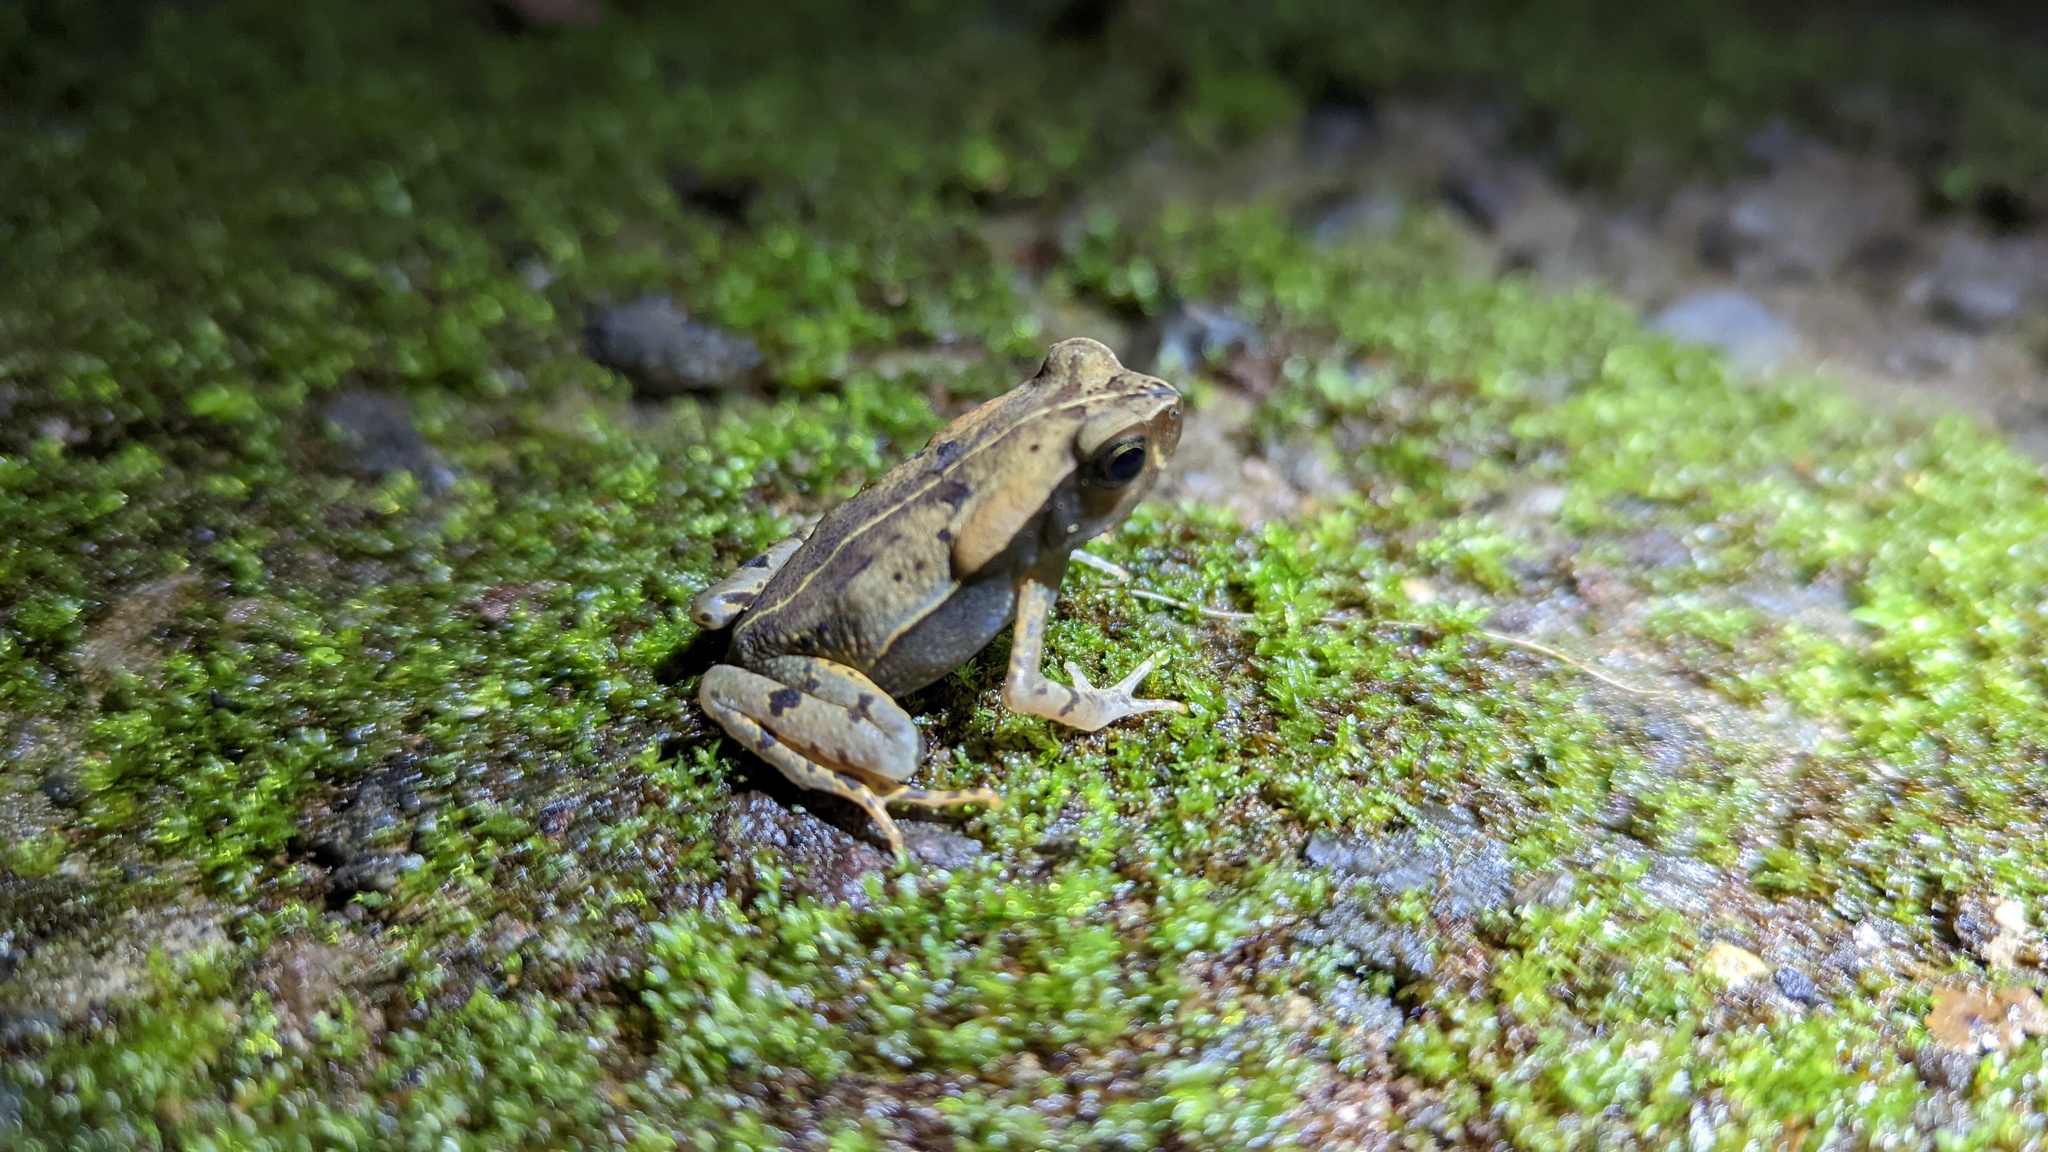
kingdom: Animalia
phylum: Chordata
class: Amphibia
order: Anura
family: Bufonidae
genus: Rhaebo
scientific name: Rhaebo haematiticus
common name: Truando toad
